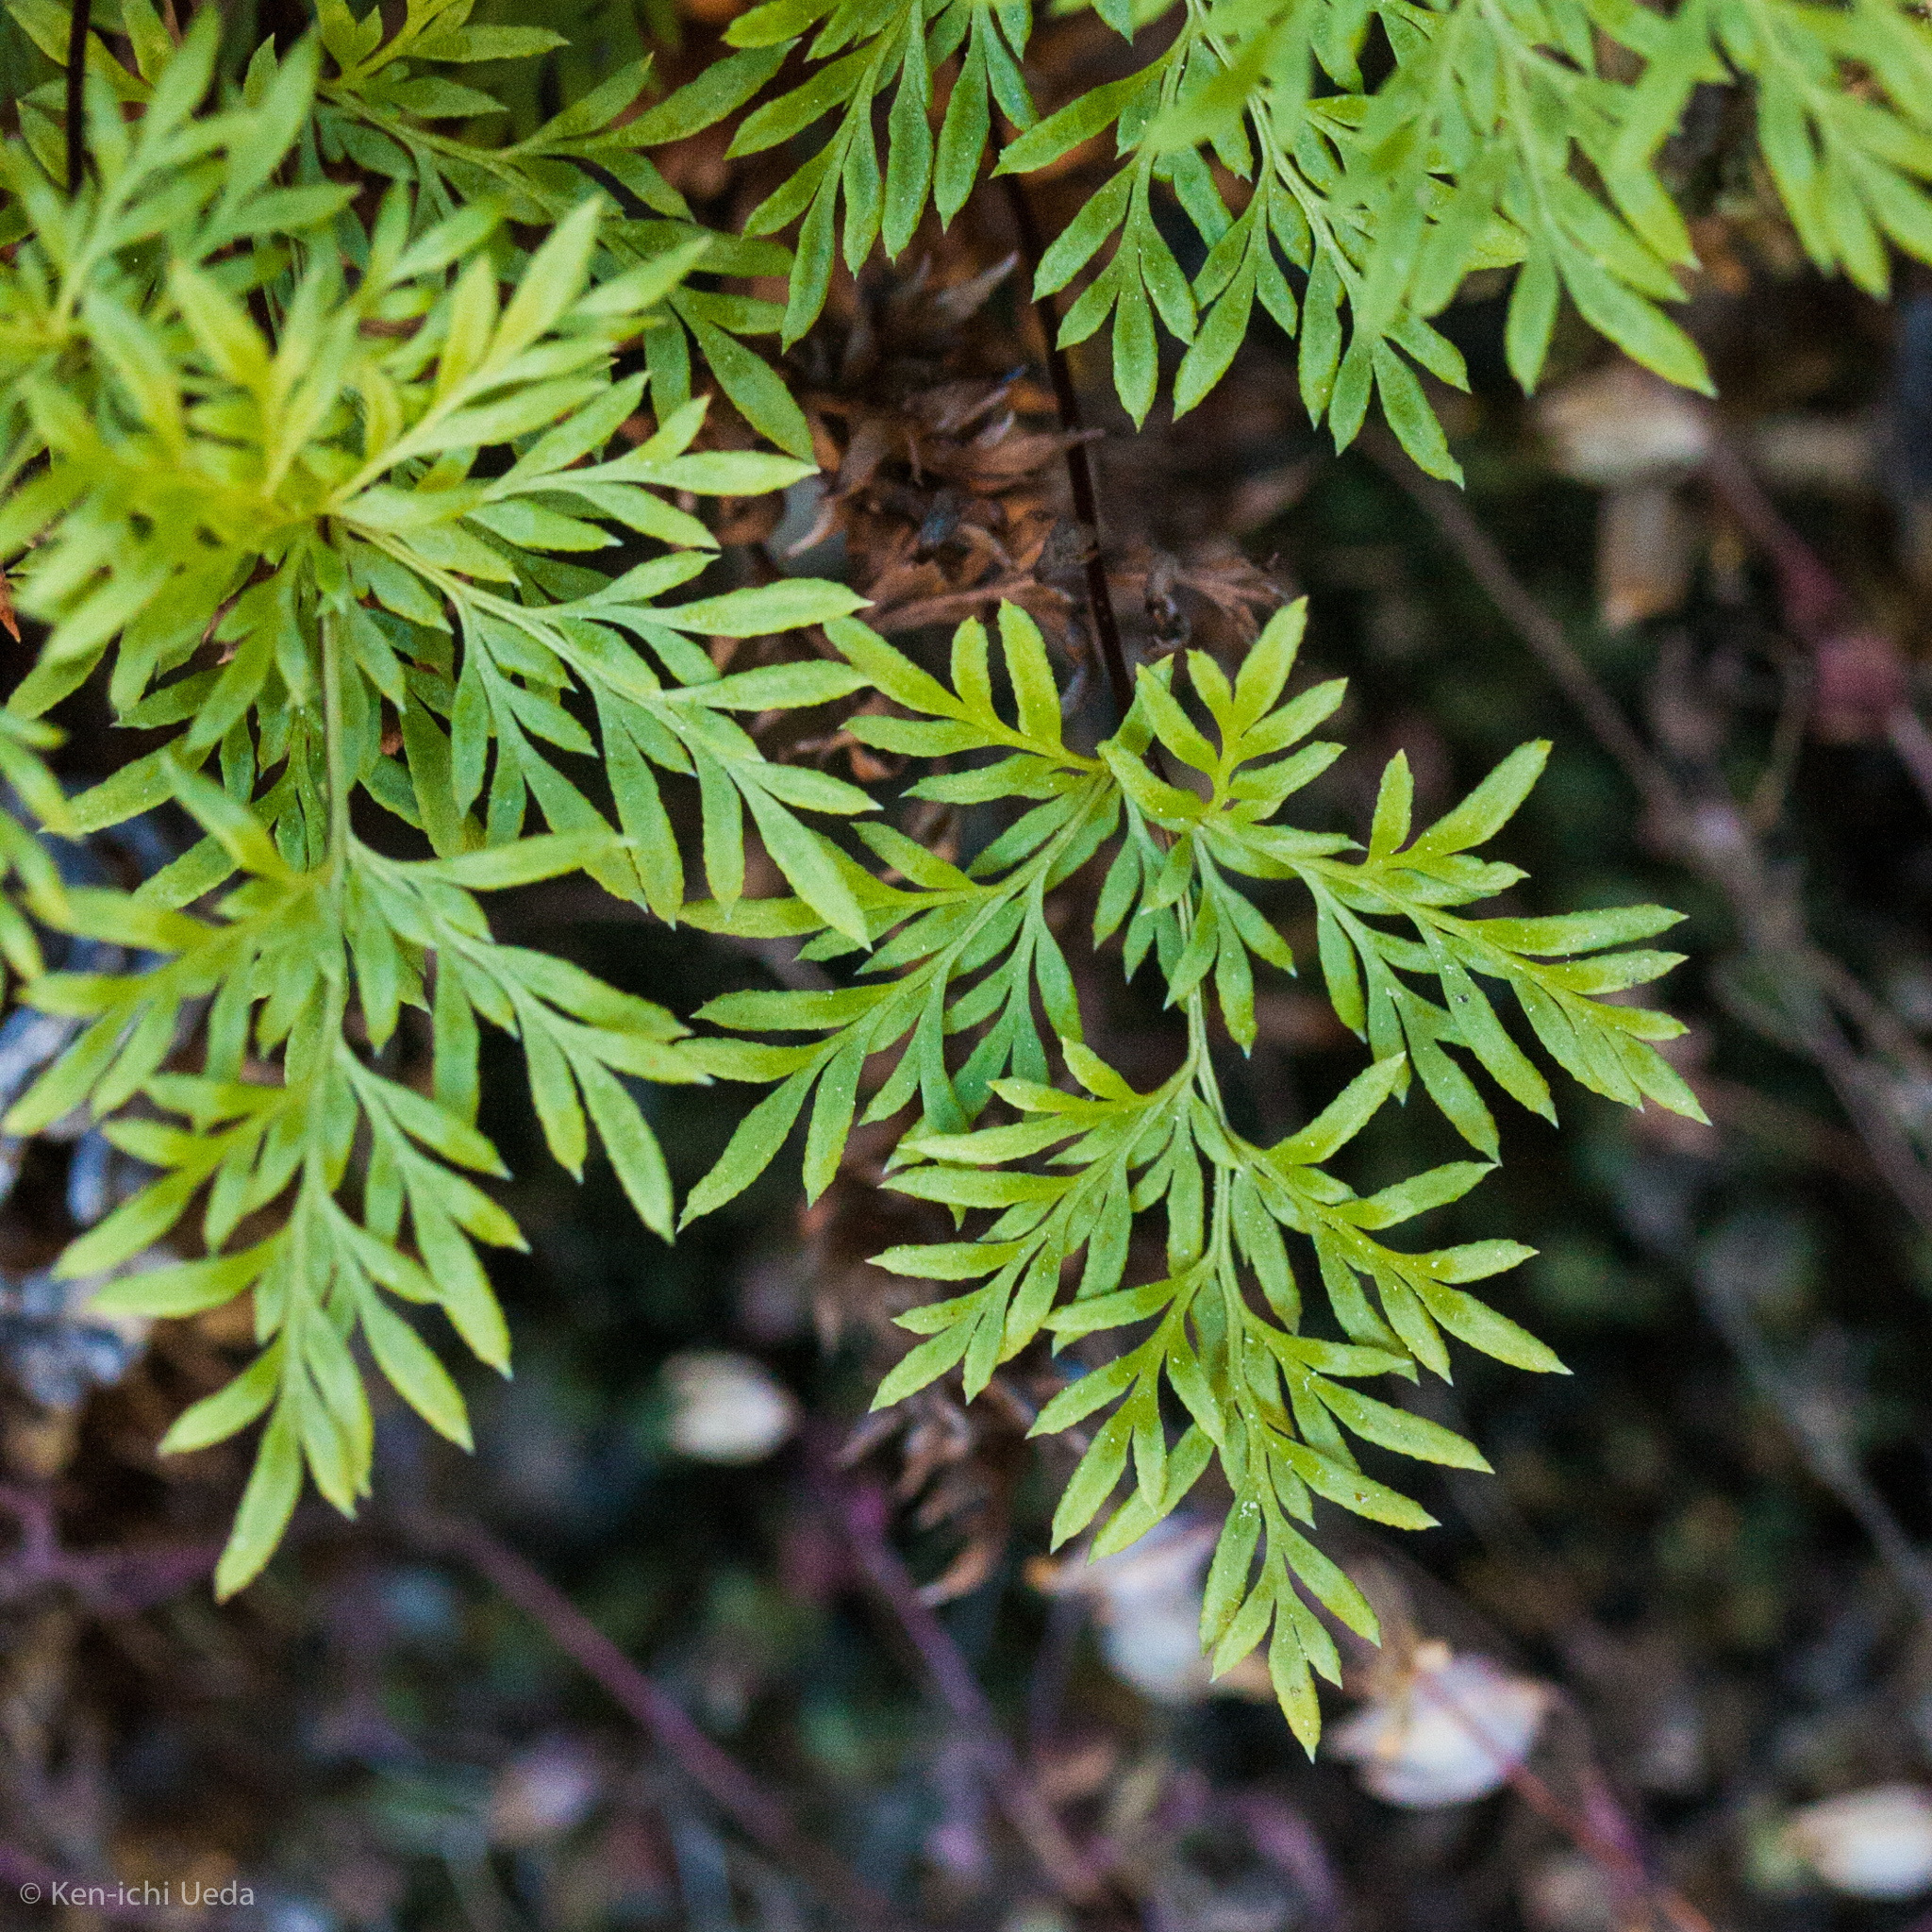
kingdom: Plantae
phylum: Tracheophyta
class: Polypodiopsida
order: Polypodiales
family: Pteridaceae
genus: Aspidotis
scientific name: Aspidotis densa
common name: Indian's dream
